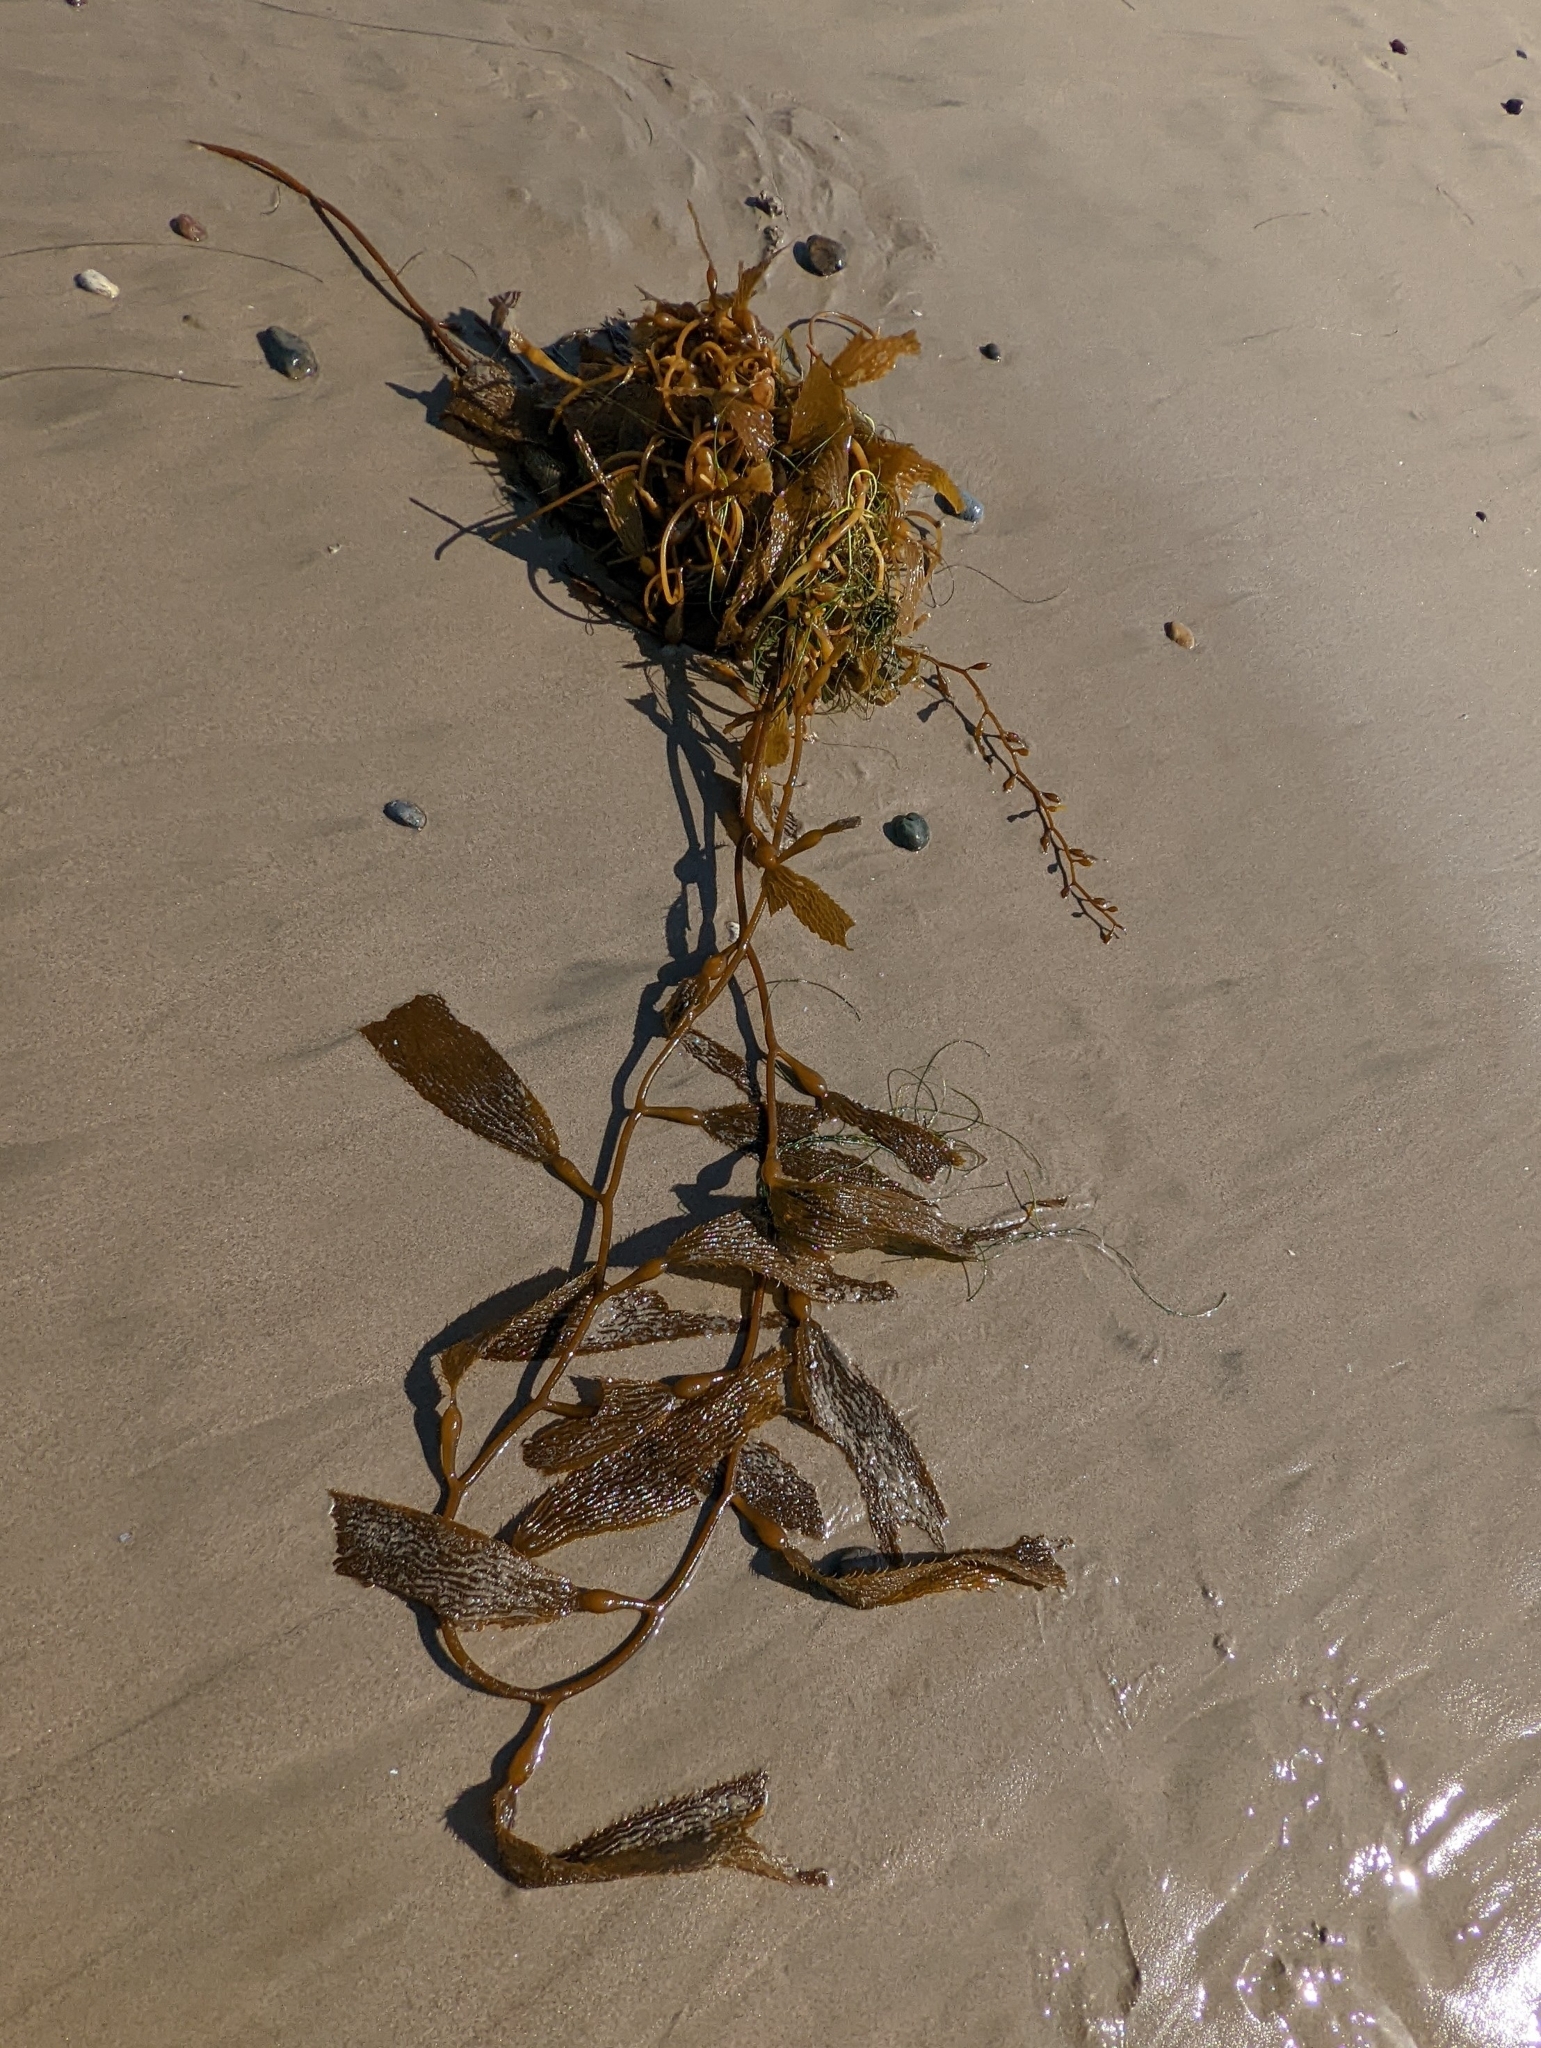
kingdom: Chromista
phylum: Ochrophyta
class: Phaeophyceae
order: Laminariales
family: Laminariaceae
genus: Macrocystis
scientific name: Macrocystis pyrifera
